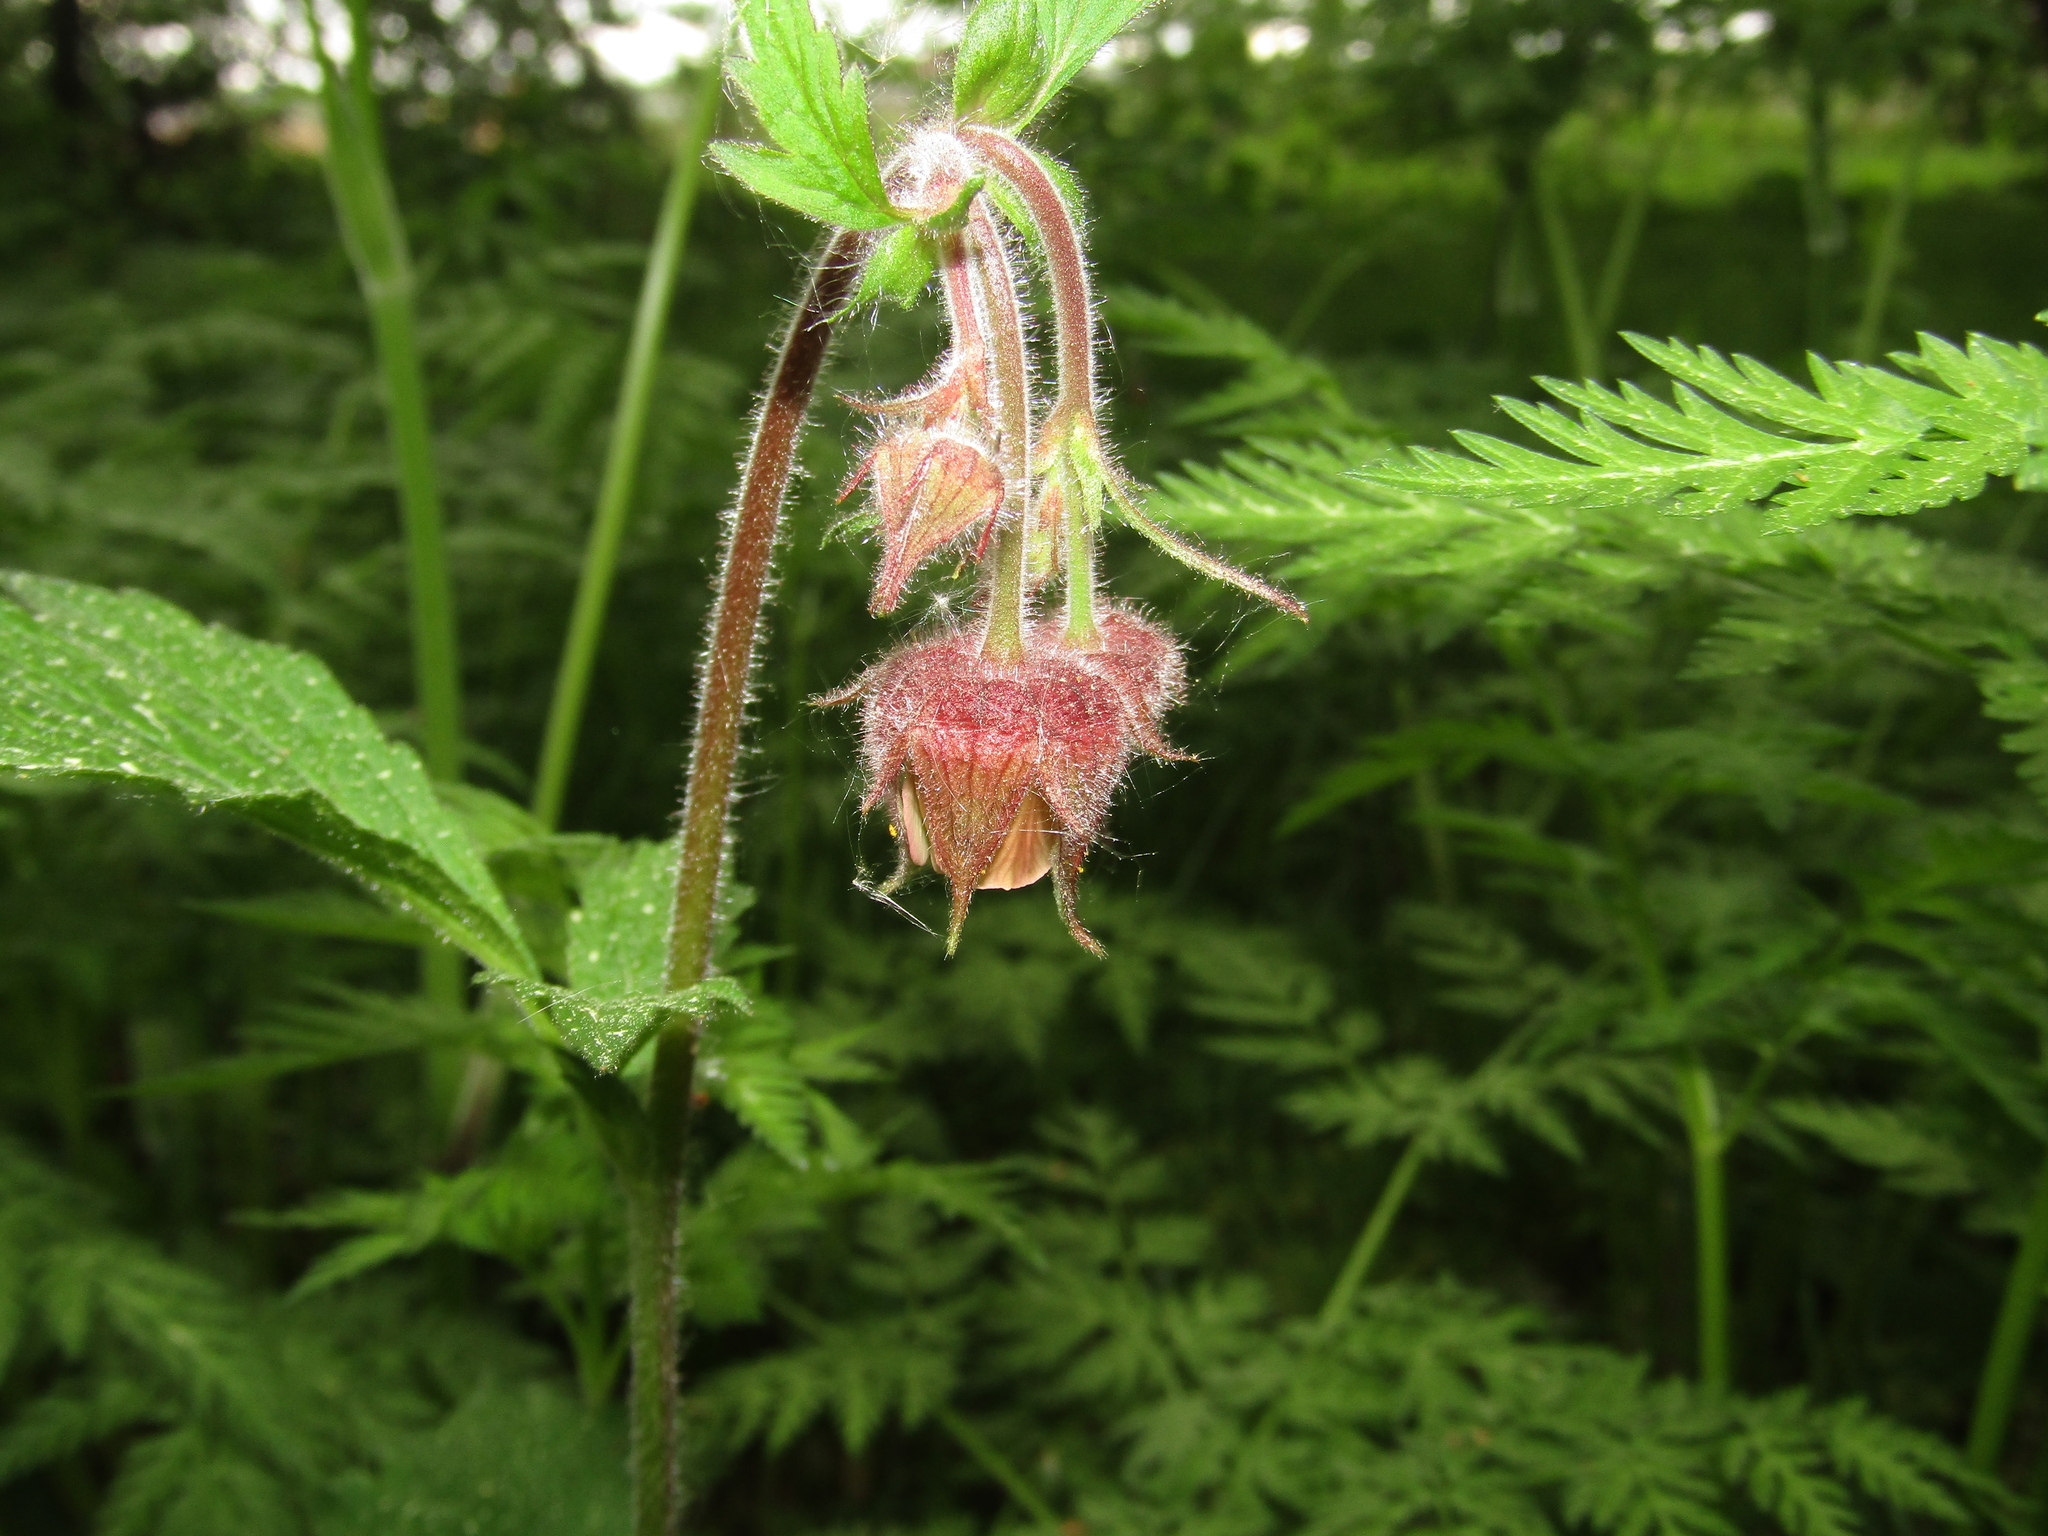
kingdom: Plantae
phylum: Tracheophyta
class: Magnoliopsida
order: Rosales
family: Rosaceae
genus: Geum
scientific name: Geum rivale
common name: Water avens
